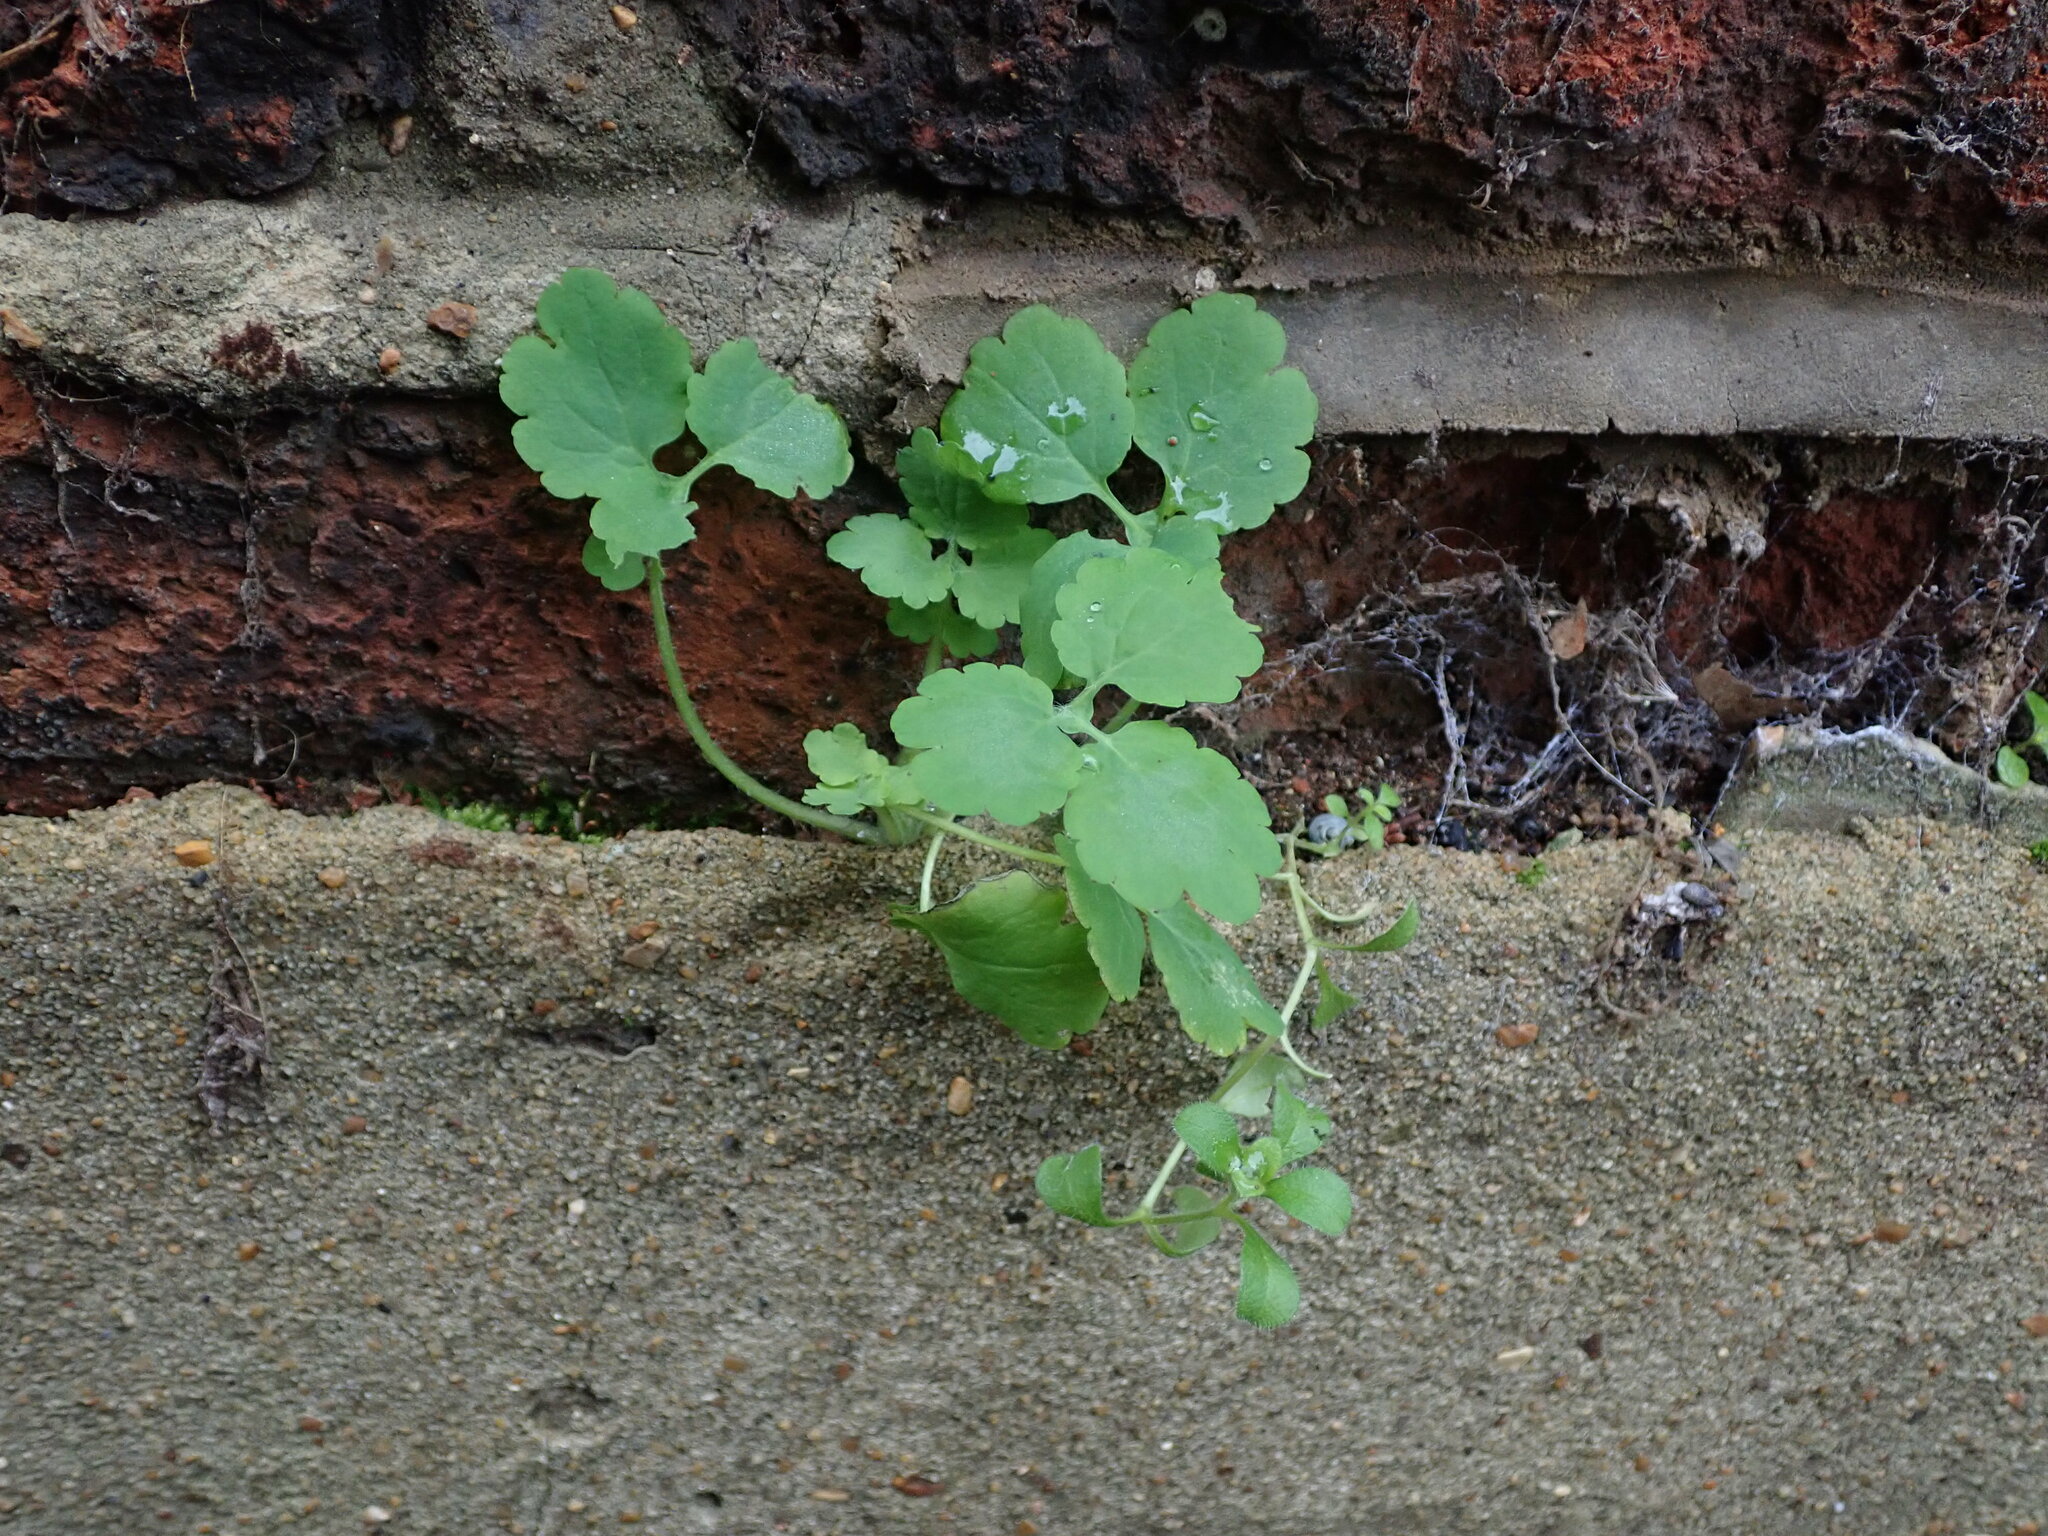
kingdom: Plantae
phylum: Tracheophyta
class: Magnoliopsida
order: Ranunculales
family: Papaveraceae
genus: Chelidonium
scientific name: Chelidonium majus
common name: Greater celandine
